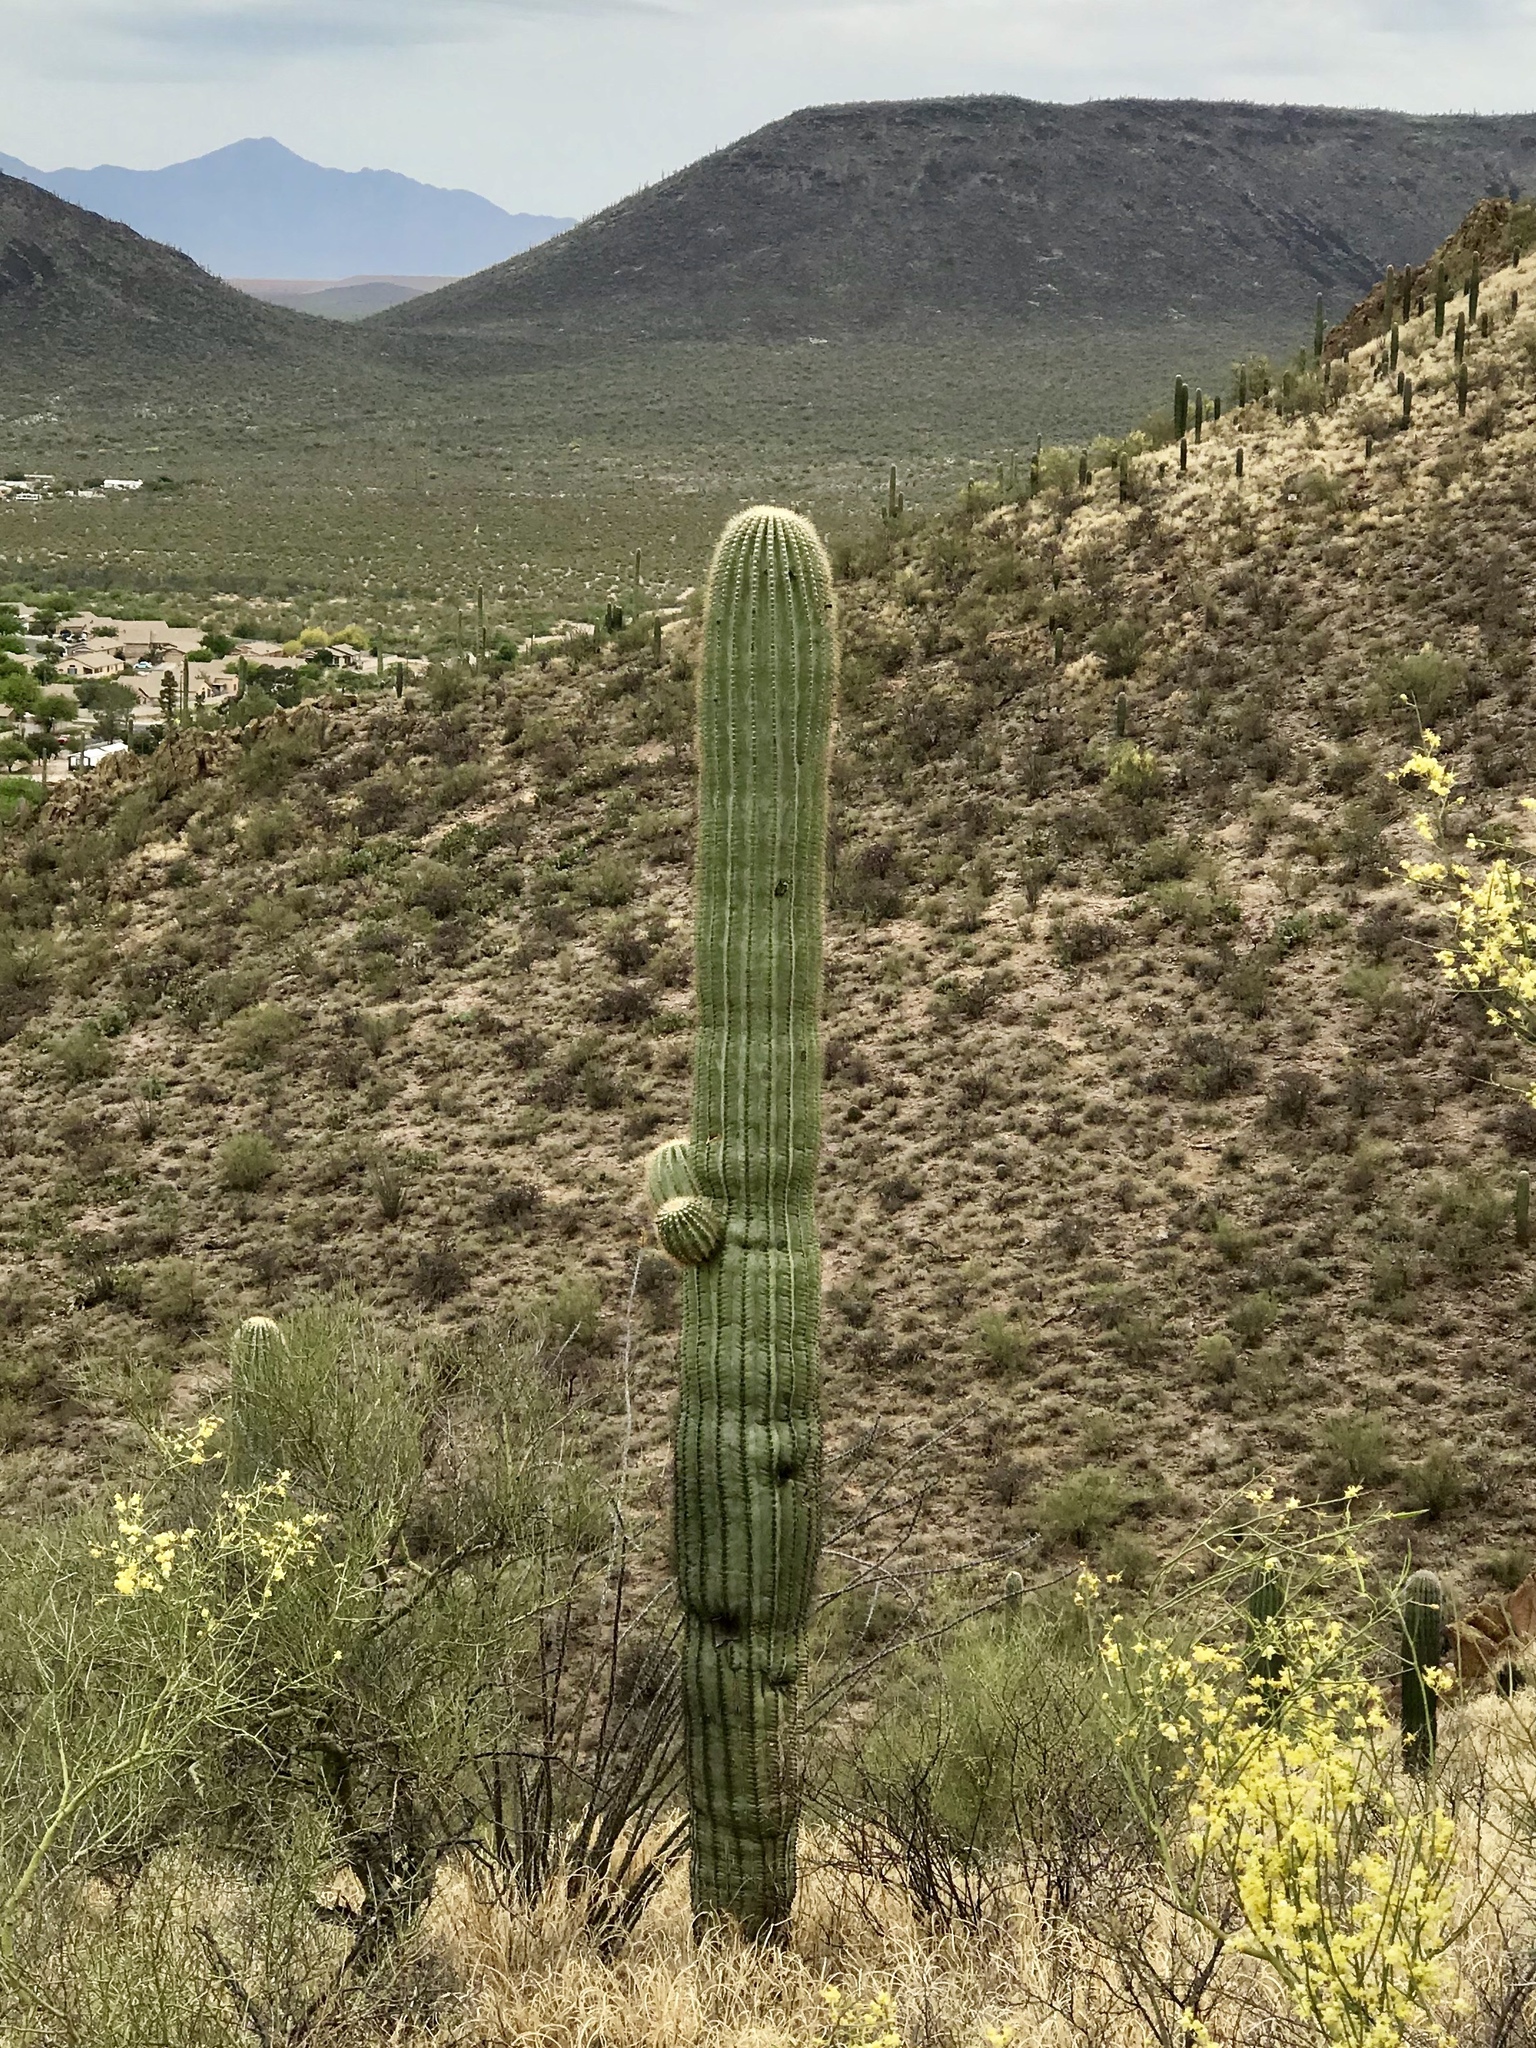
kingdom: Plantae
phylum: Tracheophyta
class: Magnoliopsida
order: Caryophyllales
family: Cactaceae
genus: Carnegiea
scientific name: Carnegiea gigantea
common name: Saguaro
